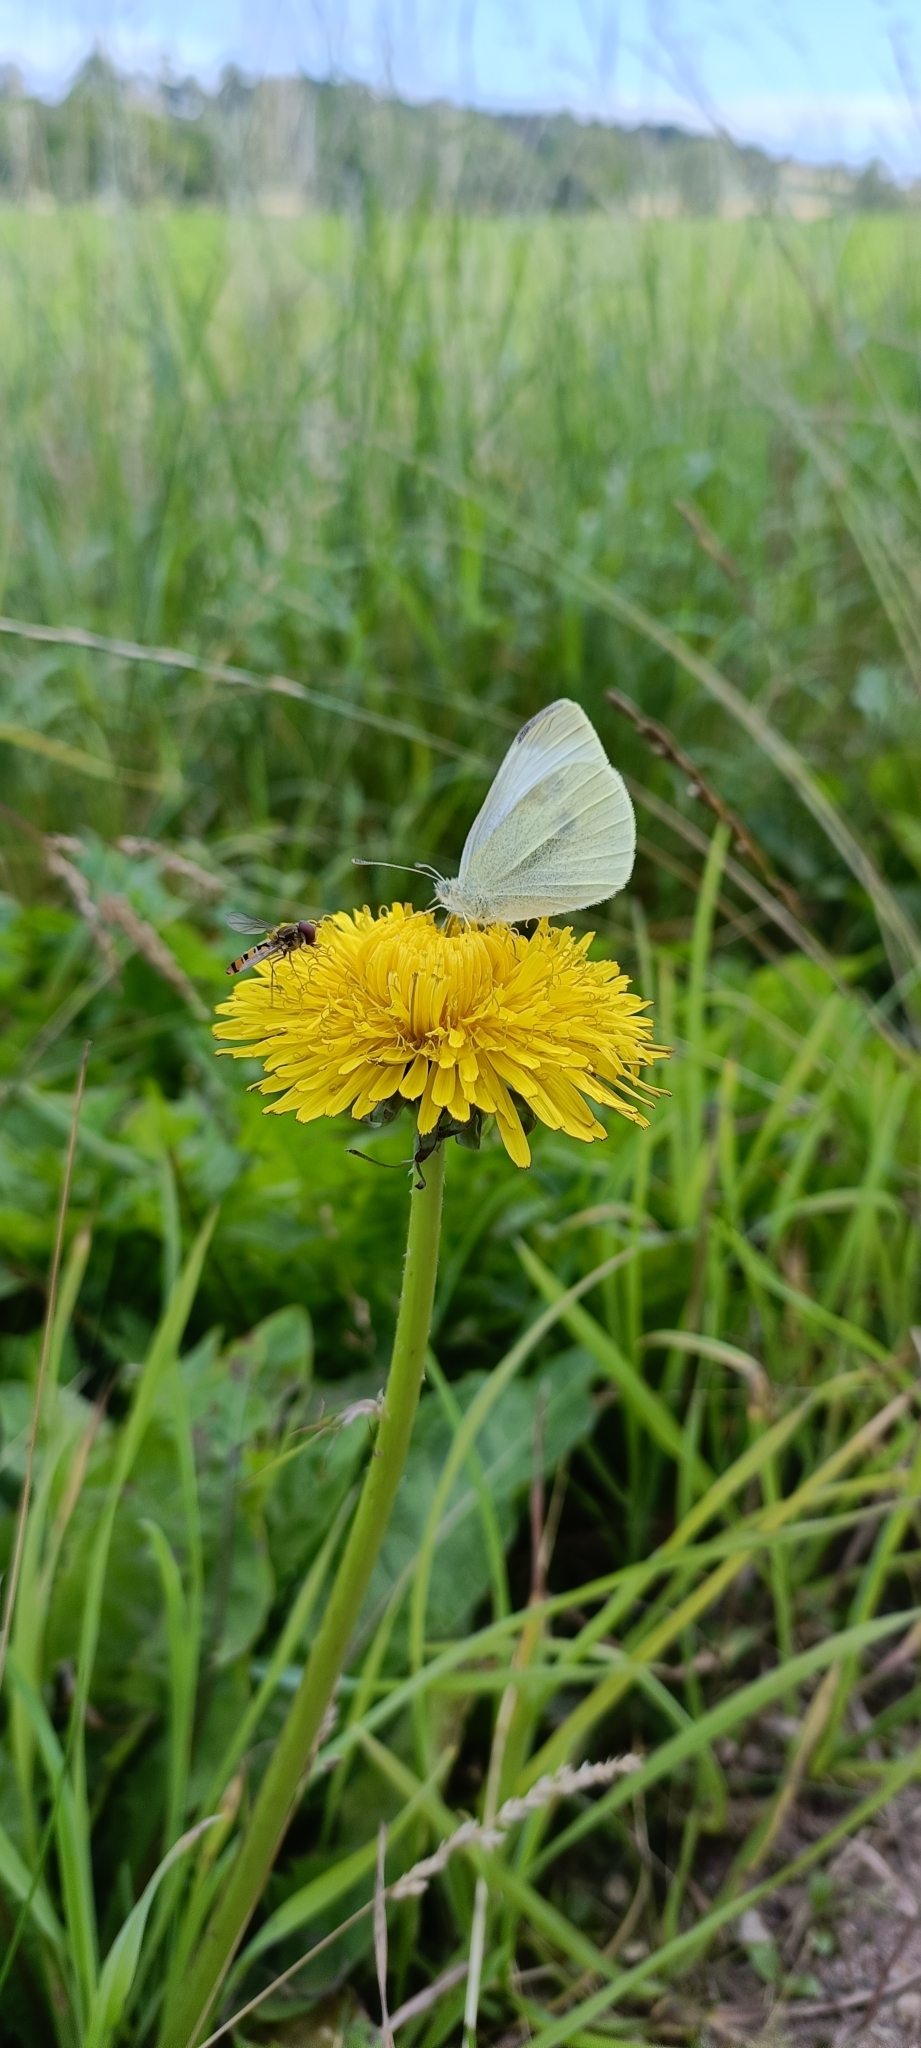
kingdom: Animalia
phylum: Arthropoda
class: Insecta
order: Lepidoptera
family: Pieridae
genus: Pieris
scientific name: Pieris rapae
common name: Small white
